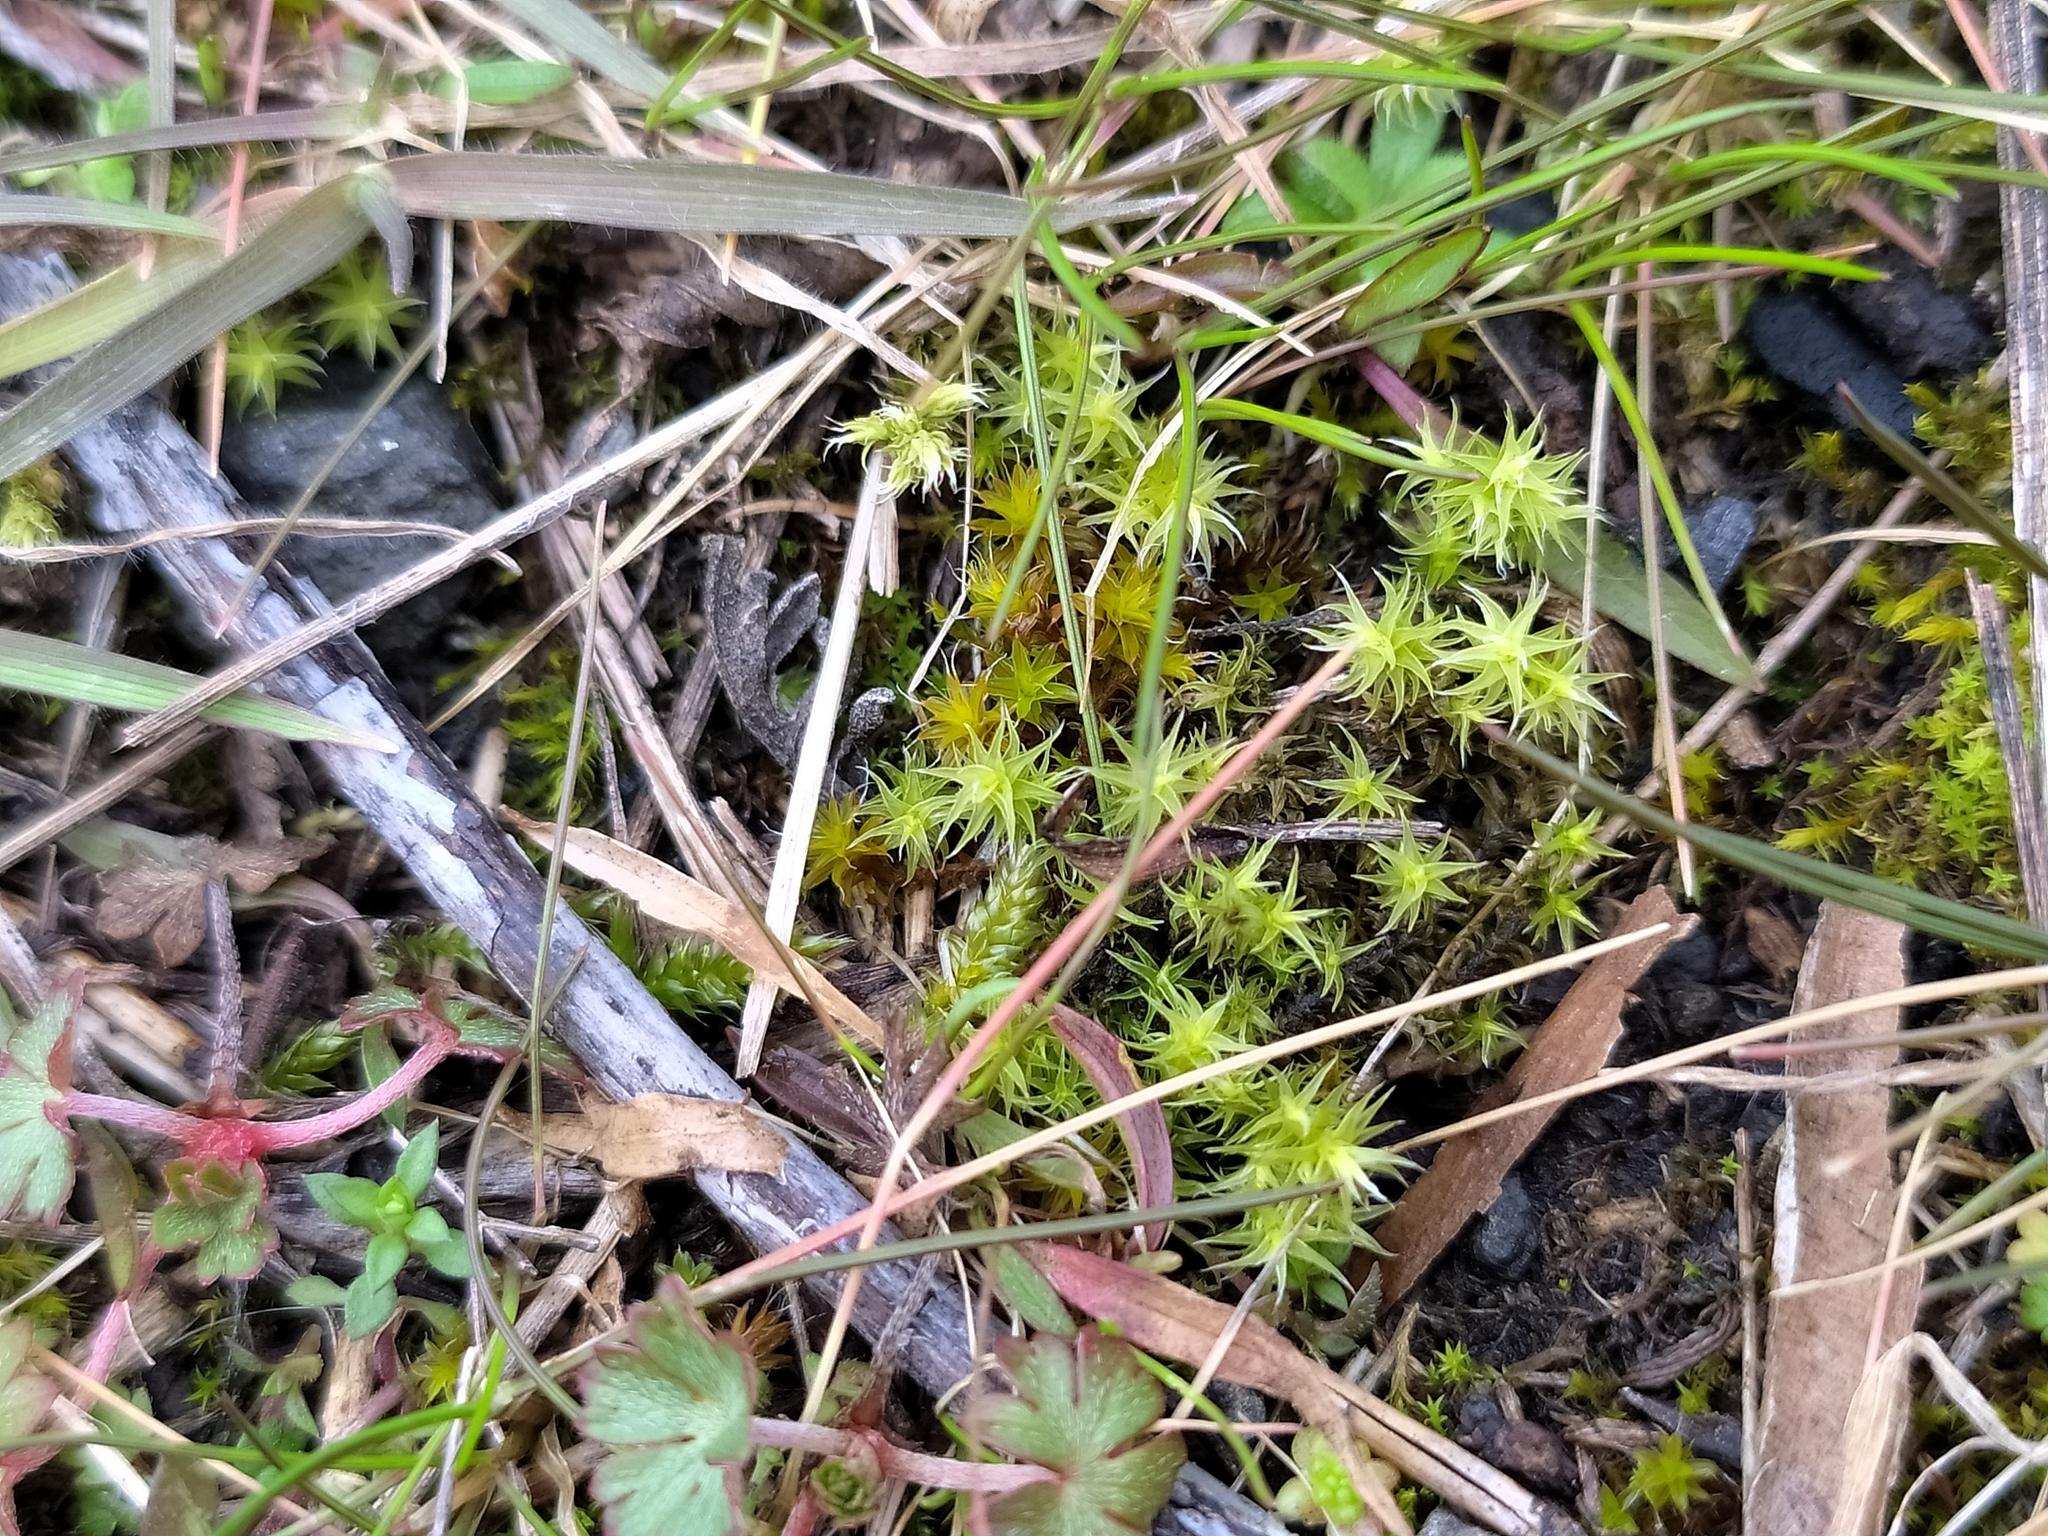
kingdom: Plantae
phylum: Bryophyta
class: Bryopsida
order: Grimmiales
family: Grimmiaceae
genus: Niphotrichum
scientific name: Niphotrichum canescens
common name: Hoary fringe-moss
